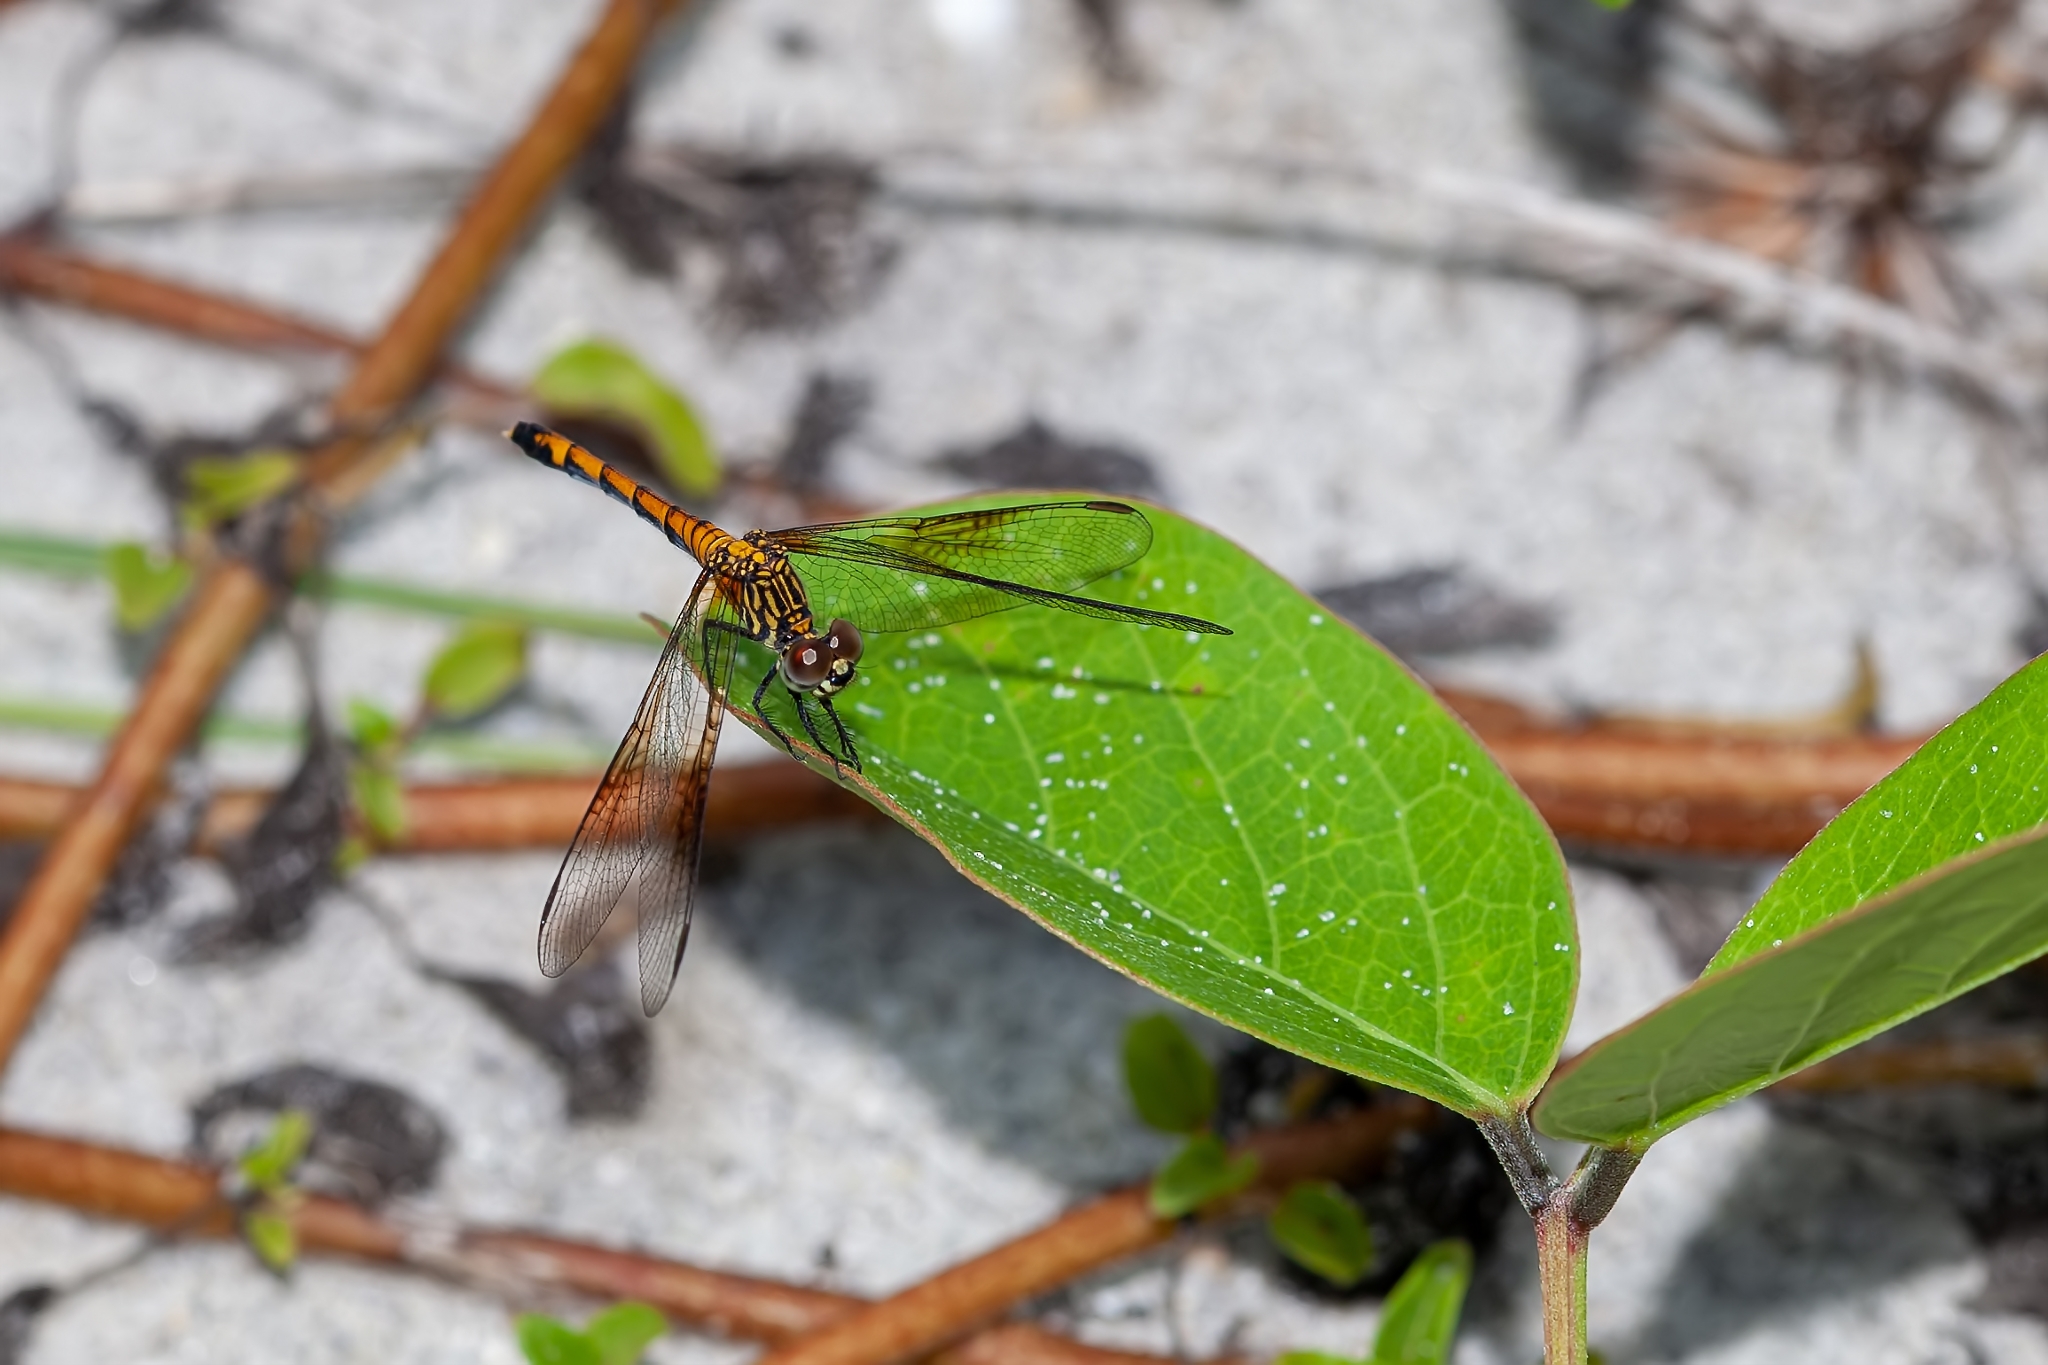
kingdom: Animalia
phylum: Arthropoda
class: Insecta
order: Odonata
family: Libellulidae
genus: Erythrodiplax
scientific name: Erythrodiplax berenice
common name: Seaside dragonlet
